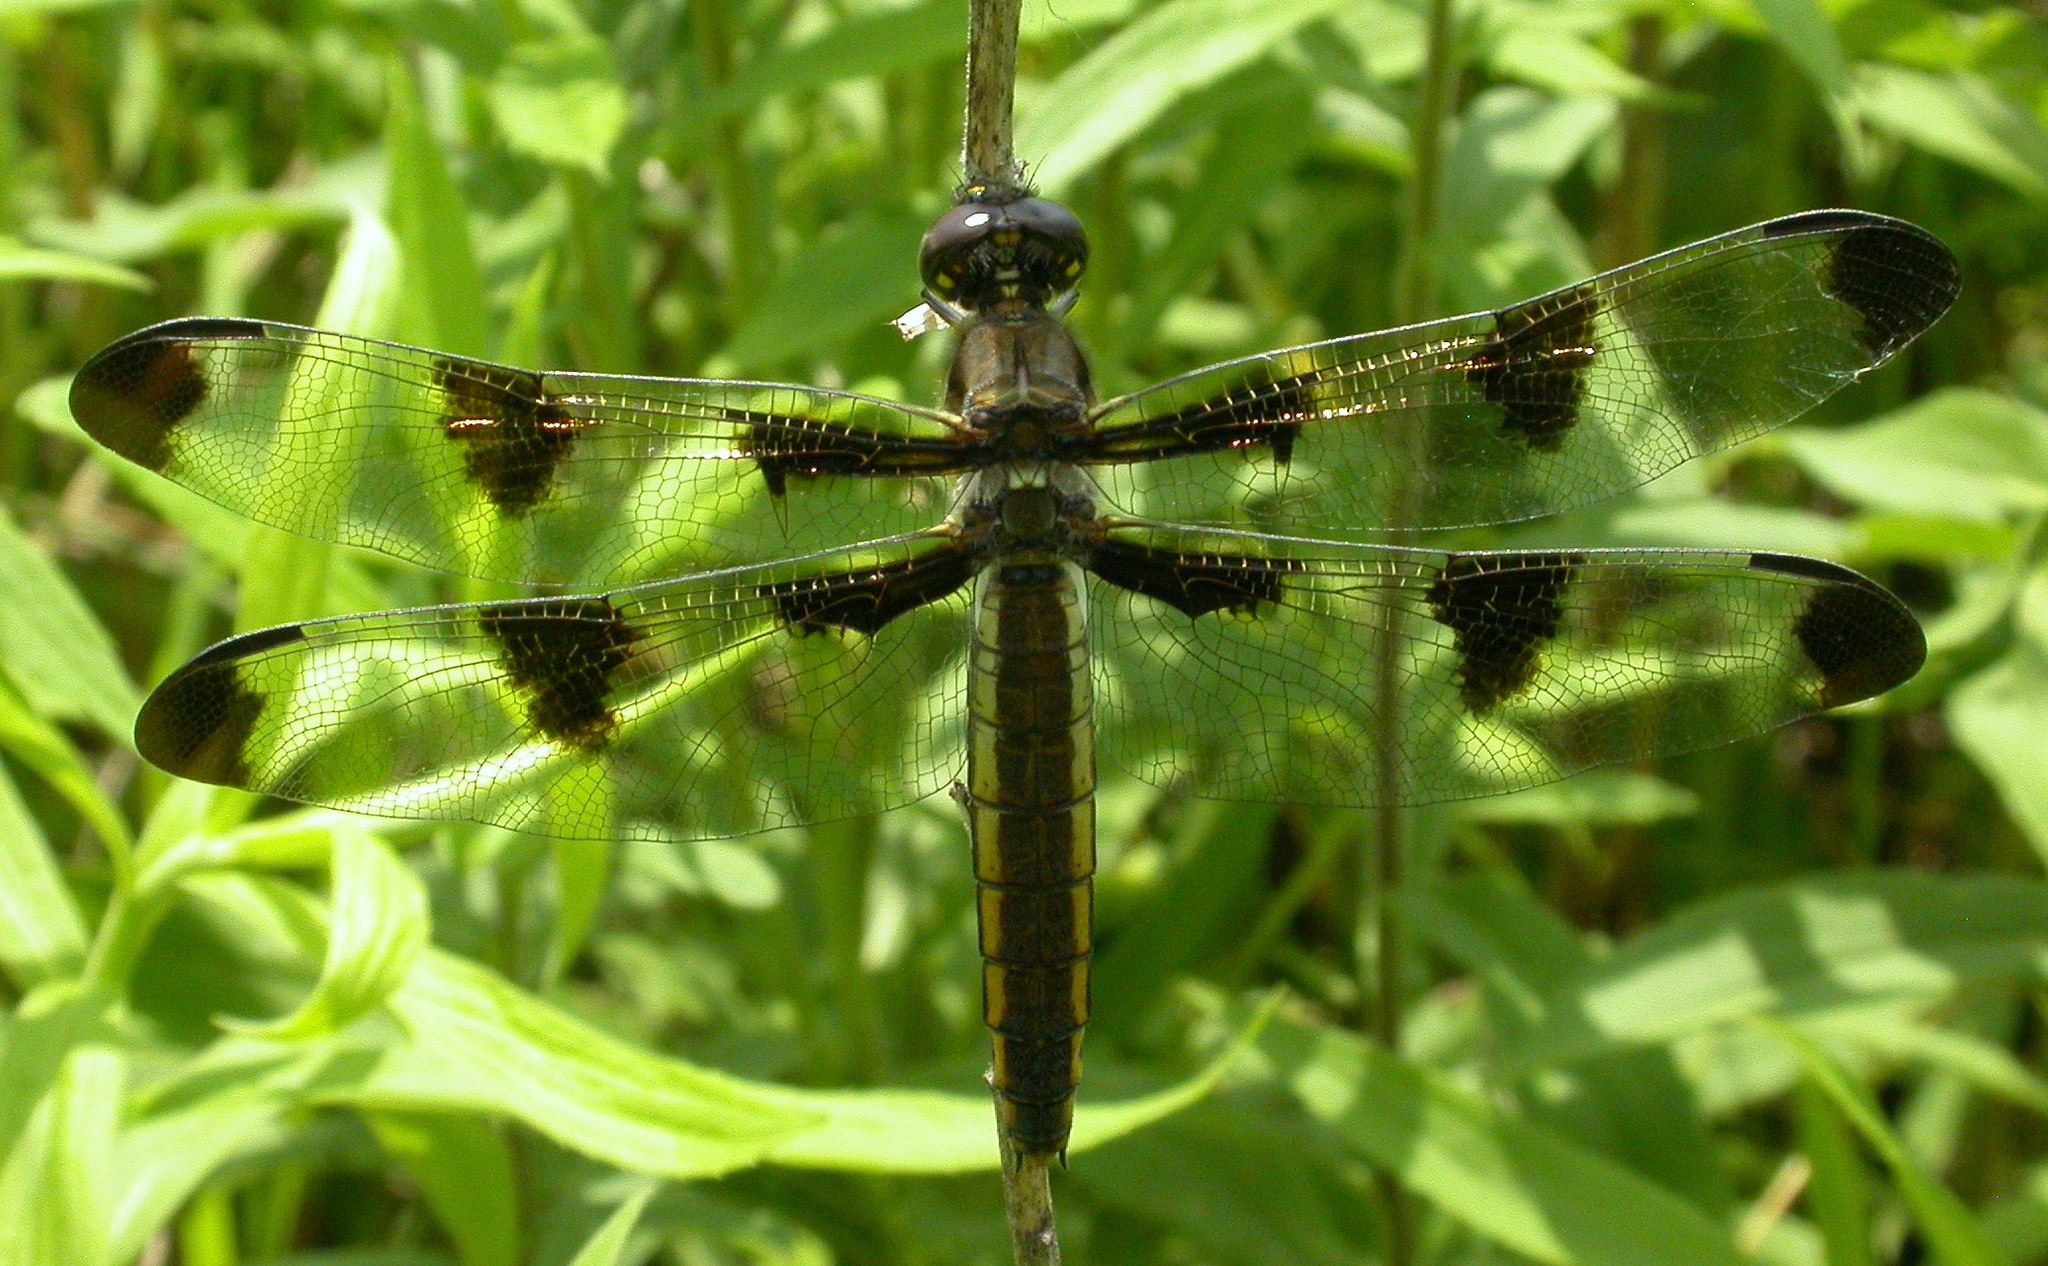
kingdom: Animalia
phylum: Arthropoda
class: Insecta
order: Odonata
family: Libellulidae
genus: Libellula
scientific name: Libellula pulchella
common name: Twelve-spotted skimmer
